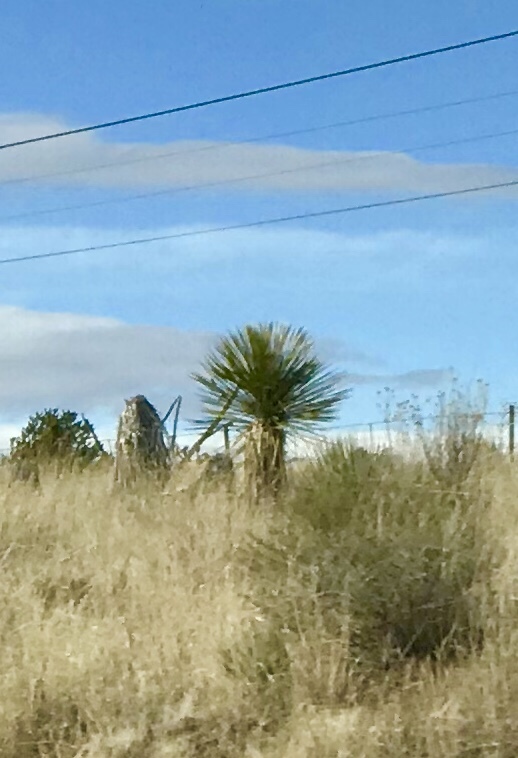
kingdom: Plantae
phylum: Tracheophyta
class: Liliopsida
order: Asparagales
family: Asparagaceae
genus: Yucca
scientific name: Yucca elata
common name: Palmella
